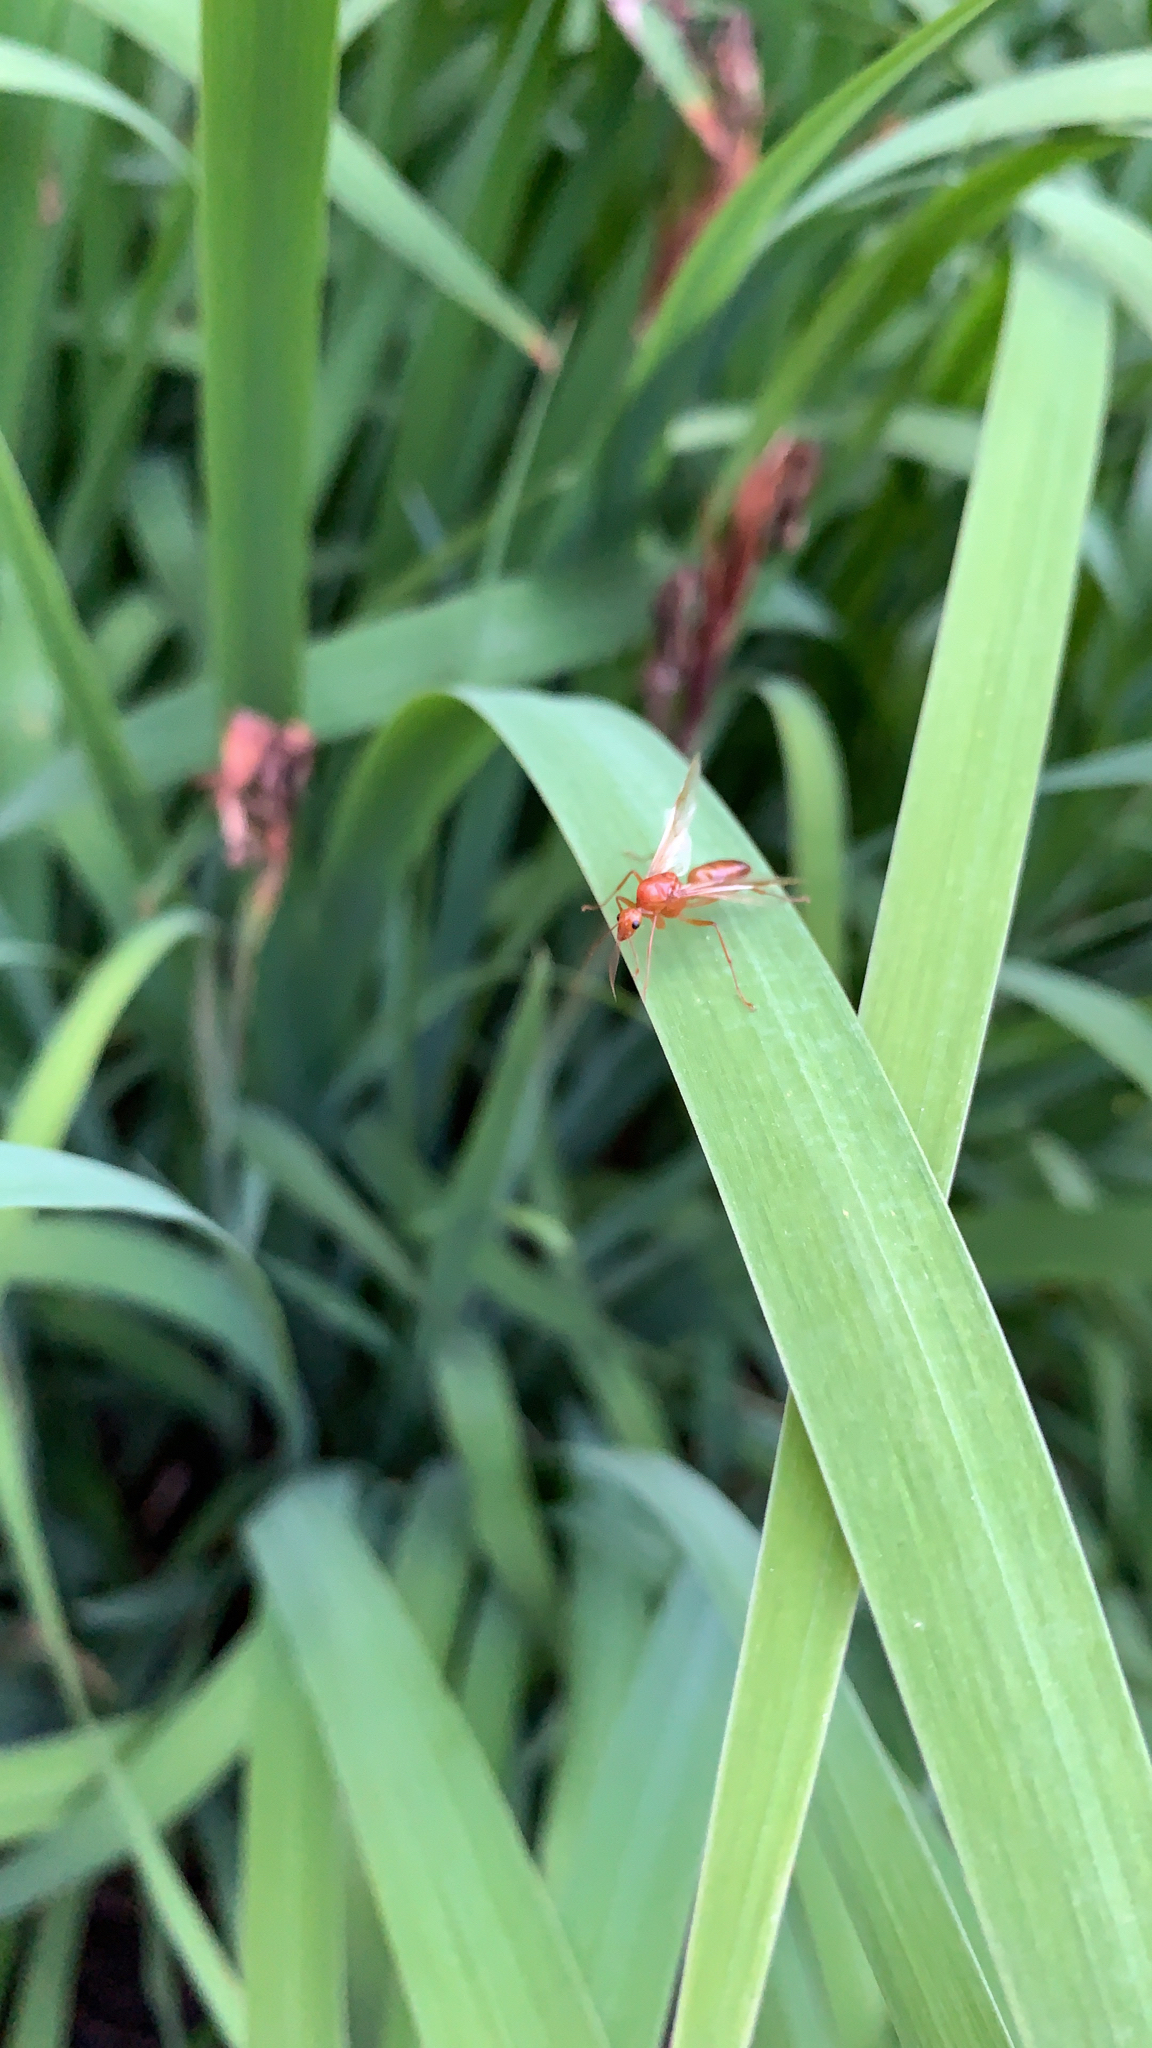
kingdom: Animalia
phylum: Arthropoda
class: Insecta
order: Hymenoptera
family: Formicidae
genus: Camponotus
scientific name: Camponotus castaneus
